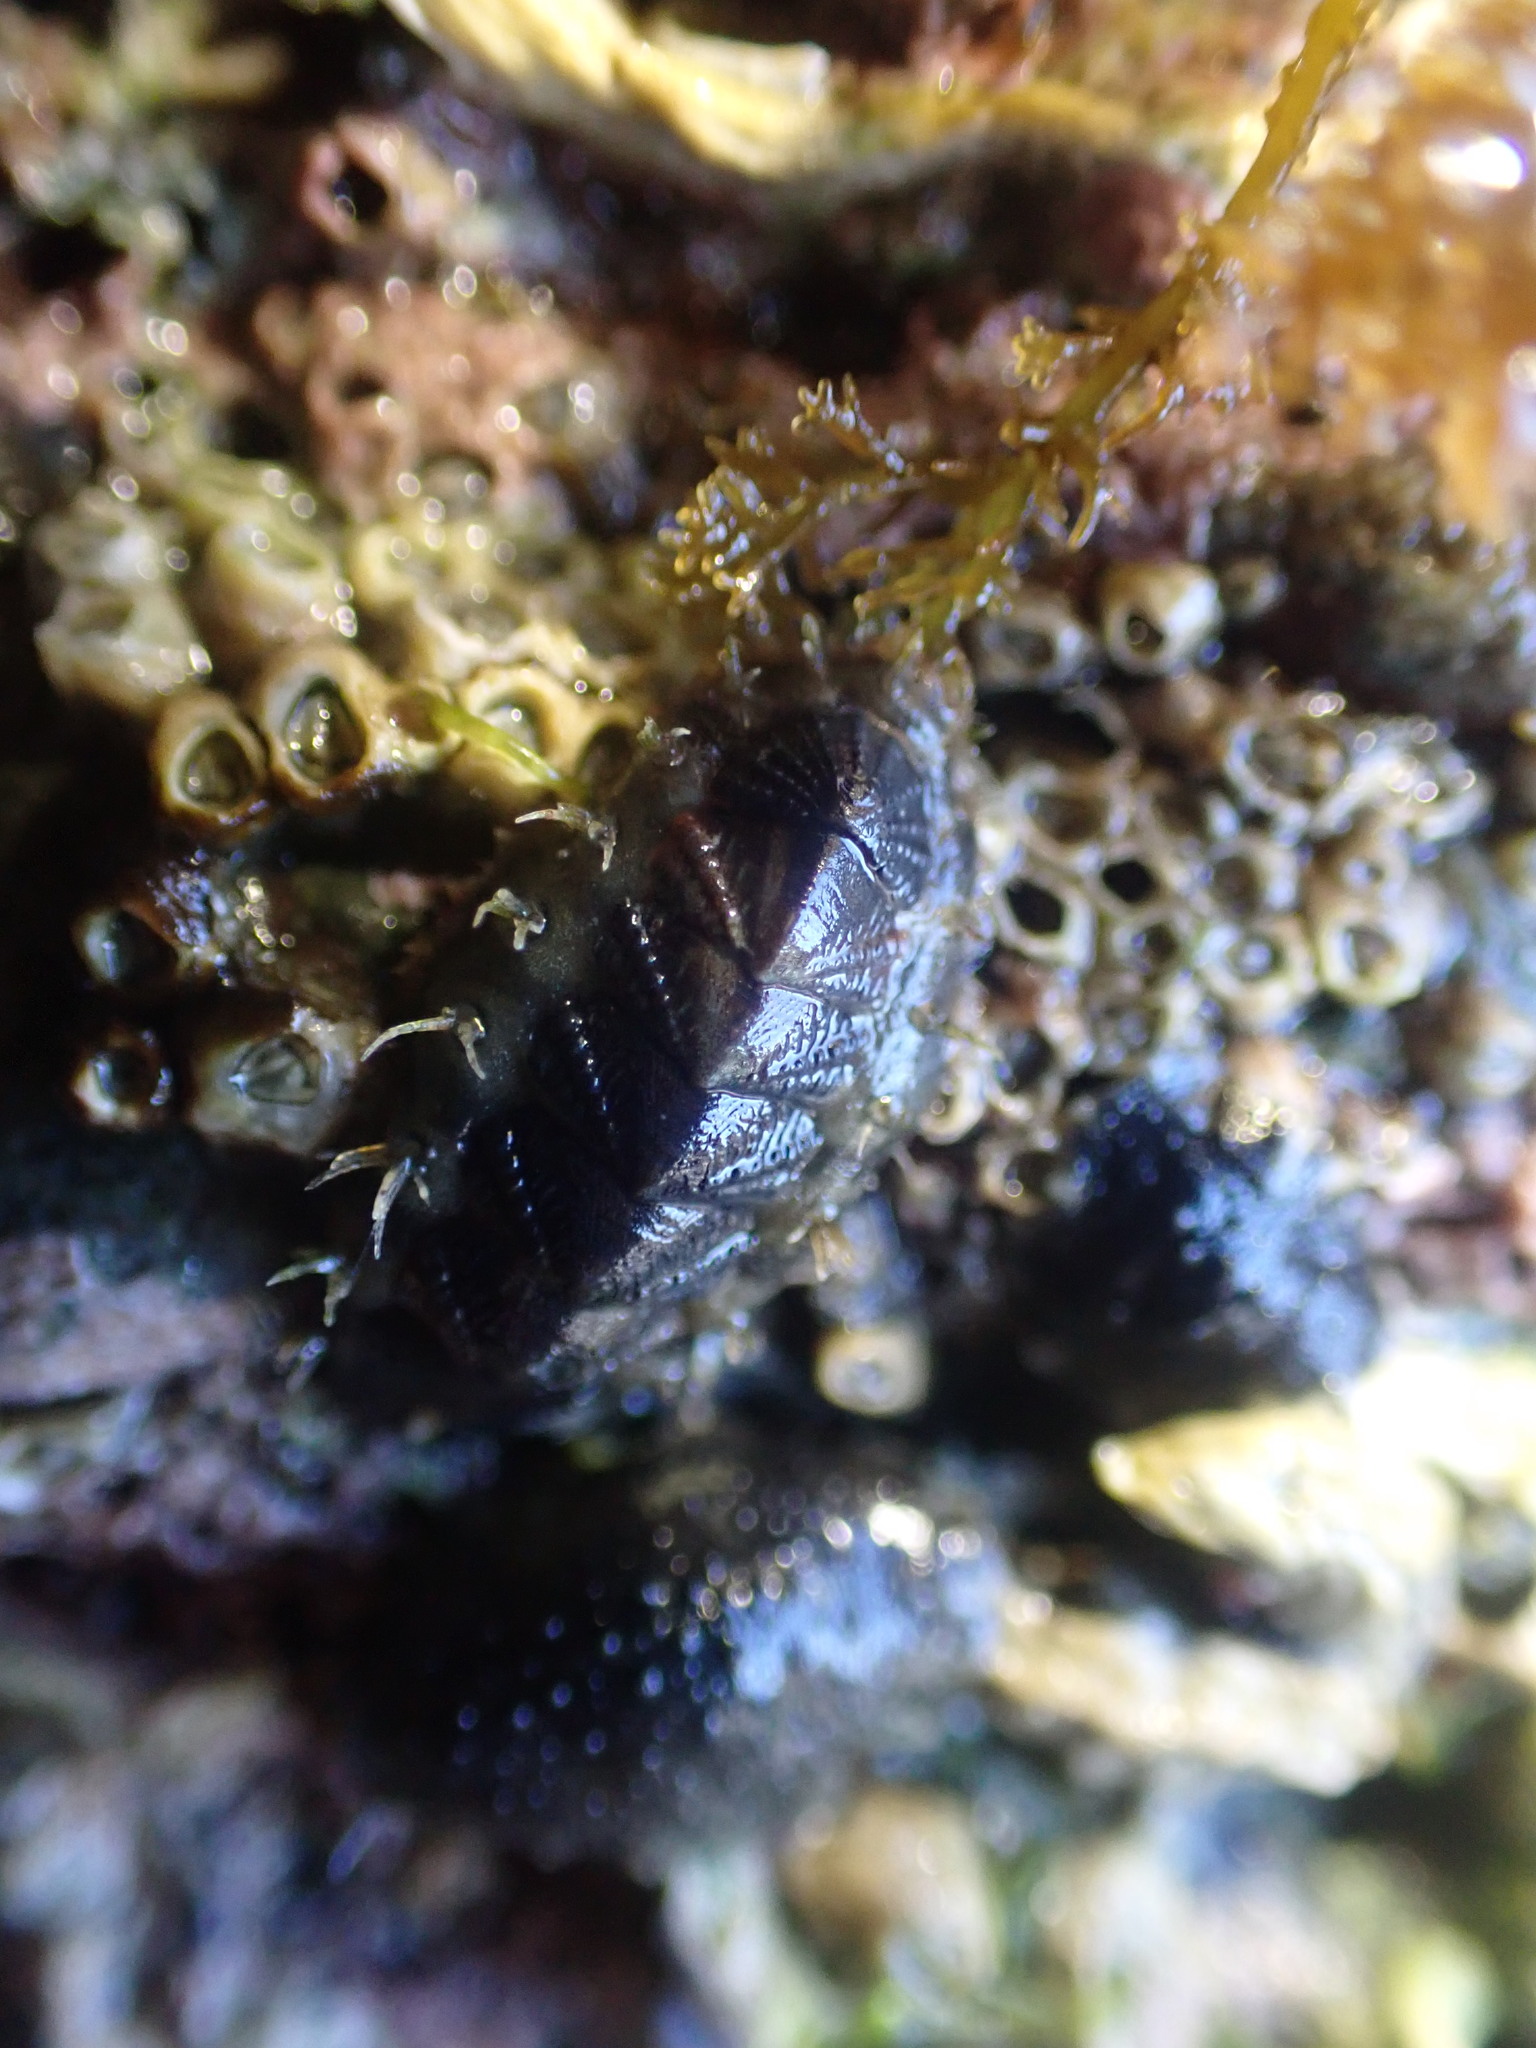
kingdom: Animalia
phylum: Mollusca
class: Polyplacophora
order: Chitonida
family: Mopaliidae
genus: Plaxiphora
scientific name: Plaxiphora caelata
